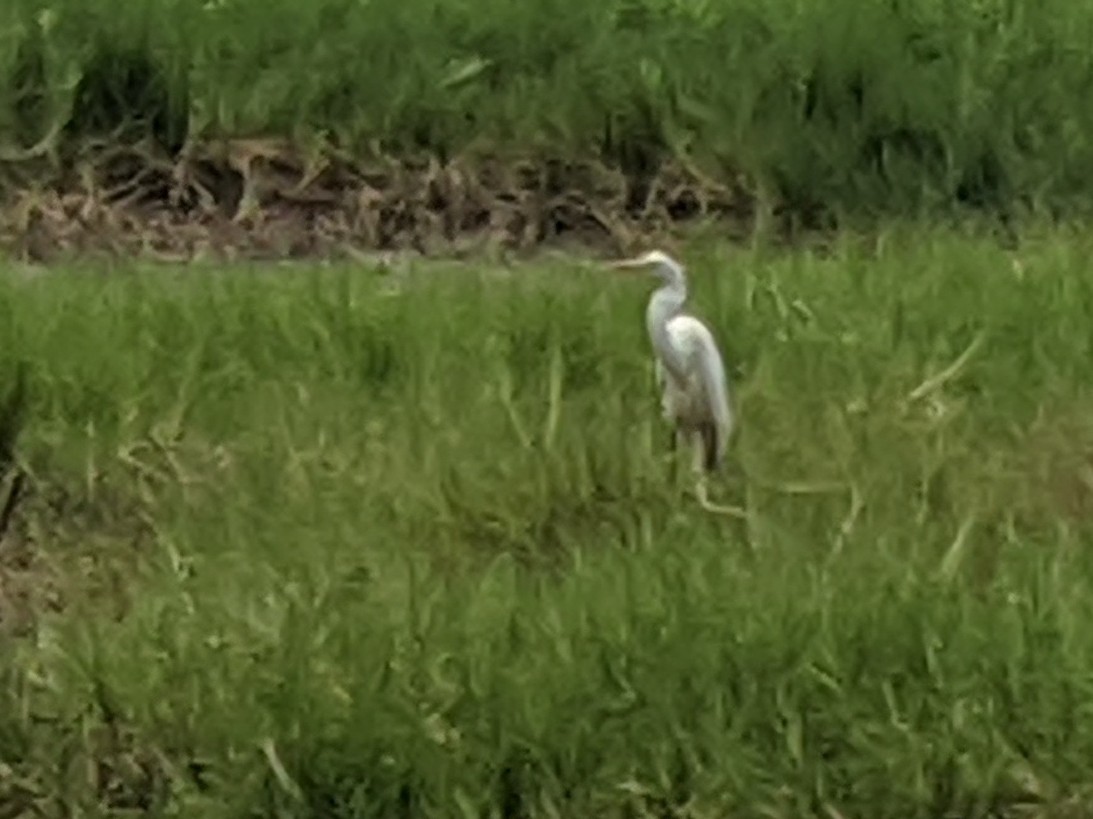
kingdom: Animalia
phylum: Chordata
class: Aves
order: Pelecaniformes
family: Ardeidae
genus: Ardea
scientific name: Ardea alba
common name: Great egret
